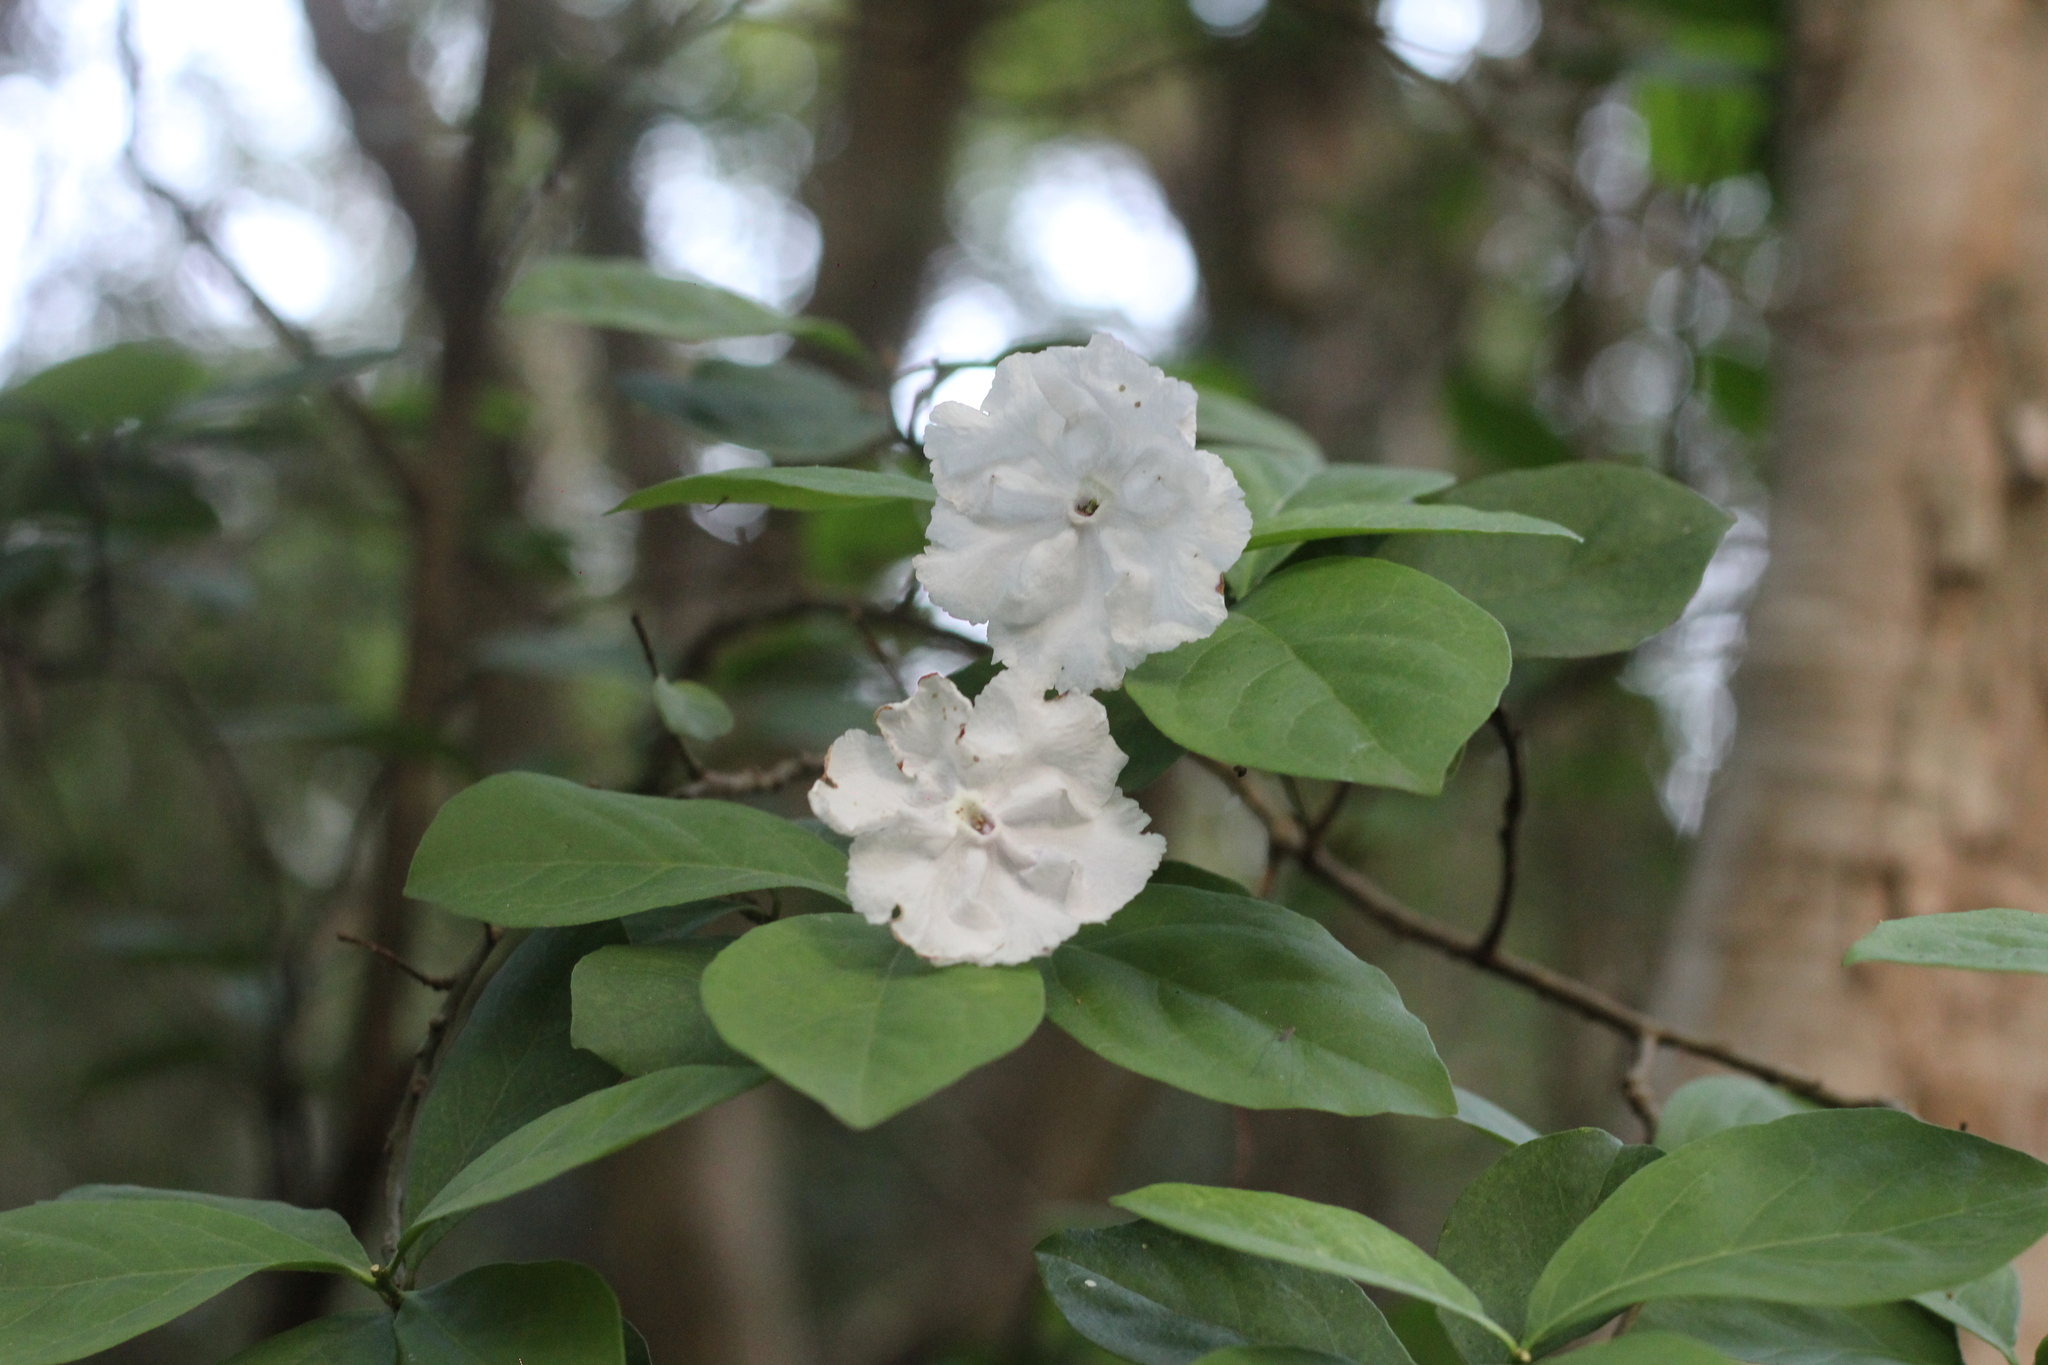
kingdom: Plantae
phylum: Tracheophyta
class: Magnoliopsida
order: Solanales
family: Solanaceae
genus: Brunfelsia
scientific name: Brunfelsia australis
